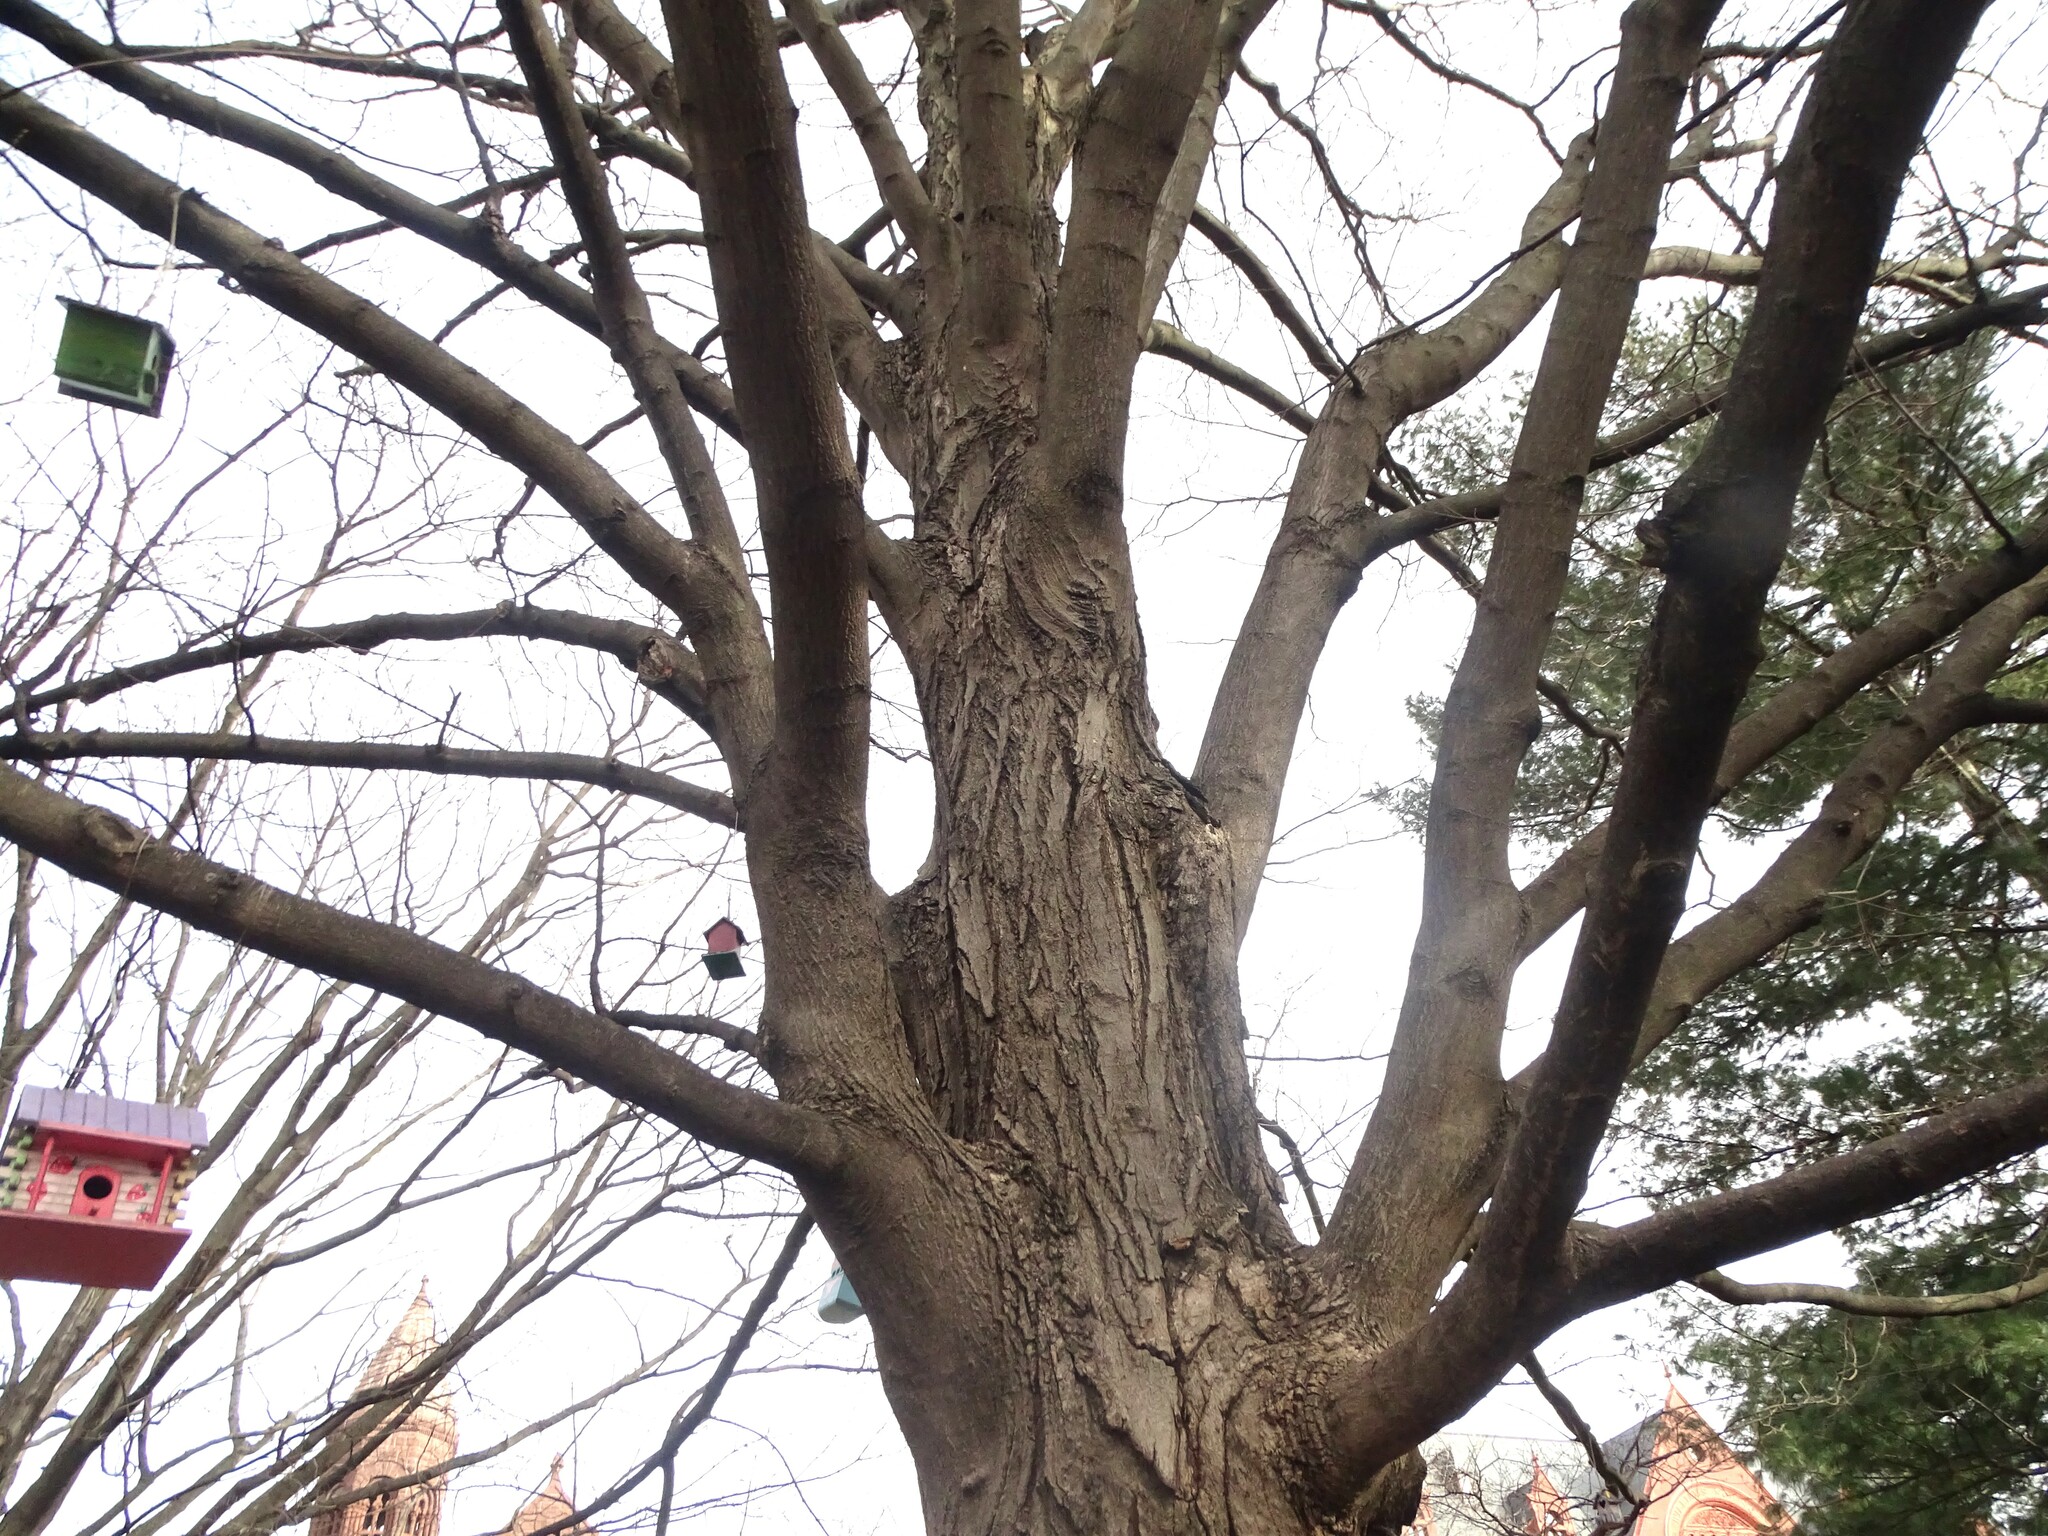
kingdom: Plantae
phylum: Tracheophyta
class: Magnoliopsida
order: Sapindales
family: Sapindaceae
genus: Acer
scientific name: Acer saccharum
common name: Sugar maple
